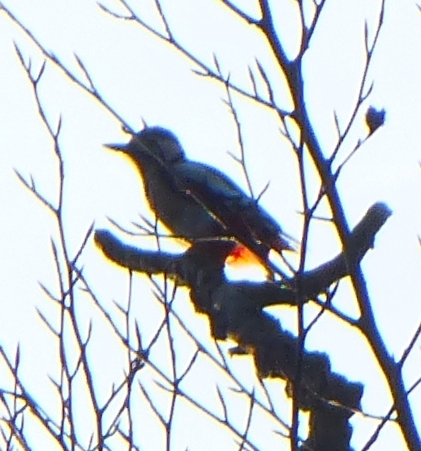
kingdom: Animalia
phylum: Chordata
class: Aves
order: Piciformes
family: Picidae
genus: Dendrocopos
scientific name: Dendrocopos major
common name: Great spotted woodpecker
